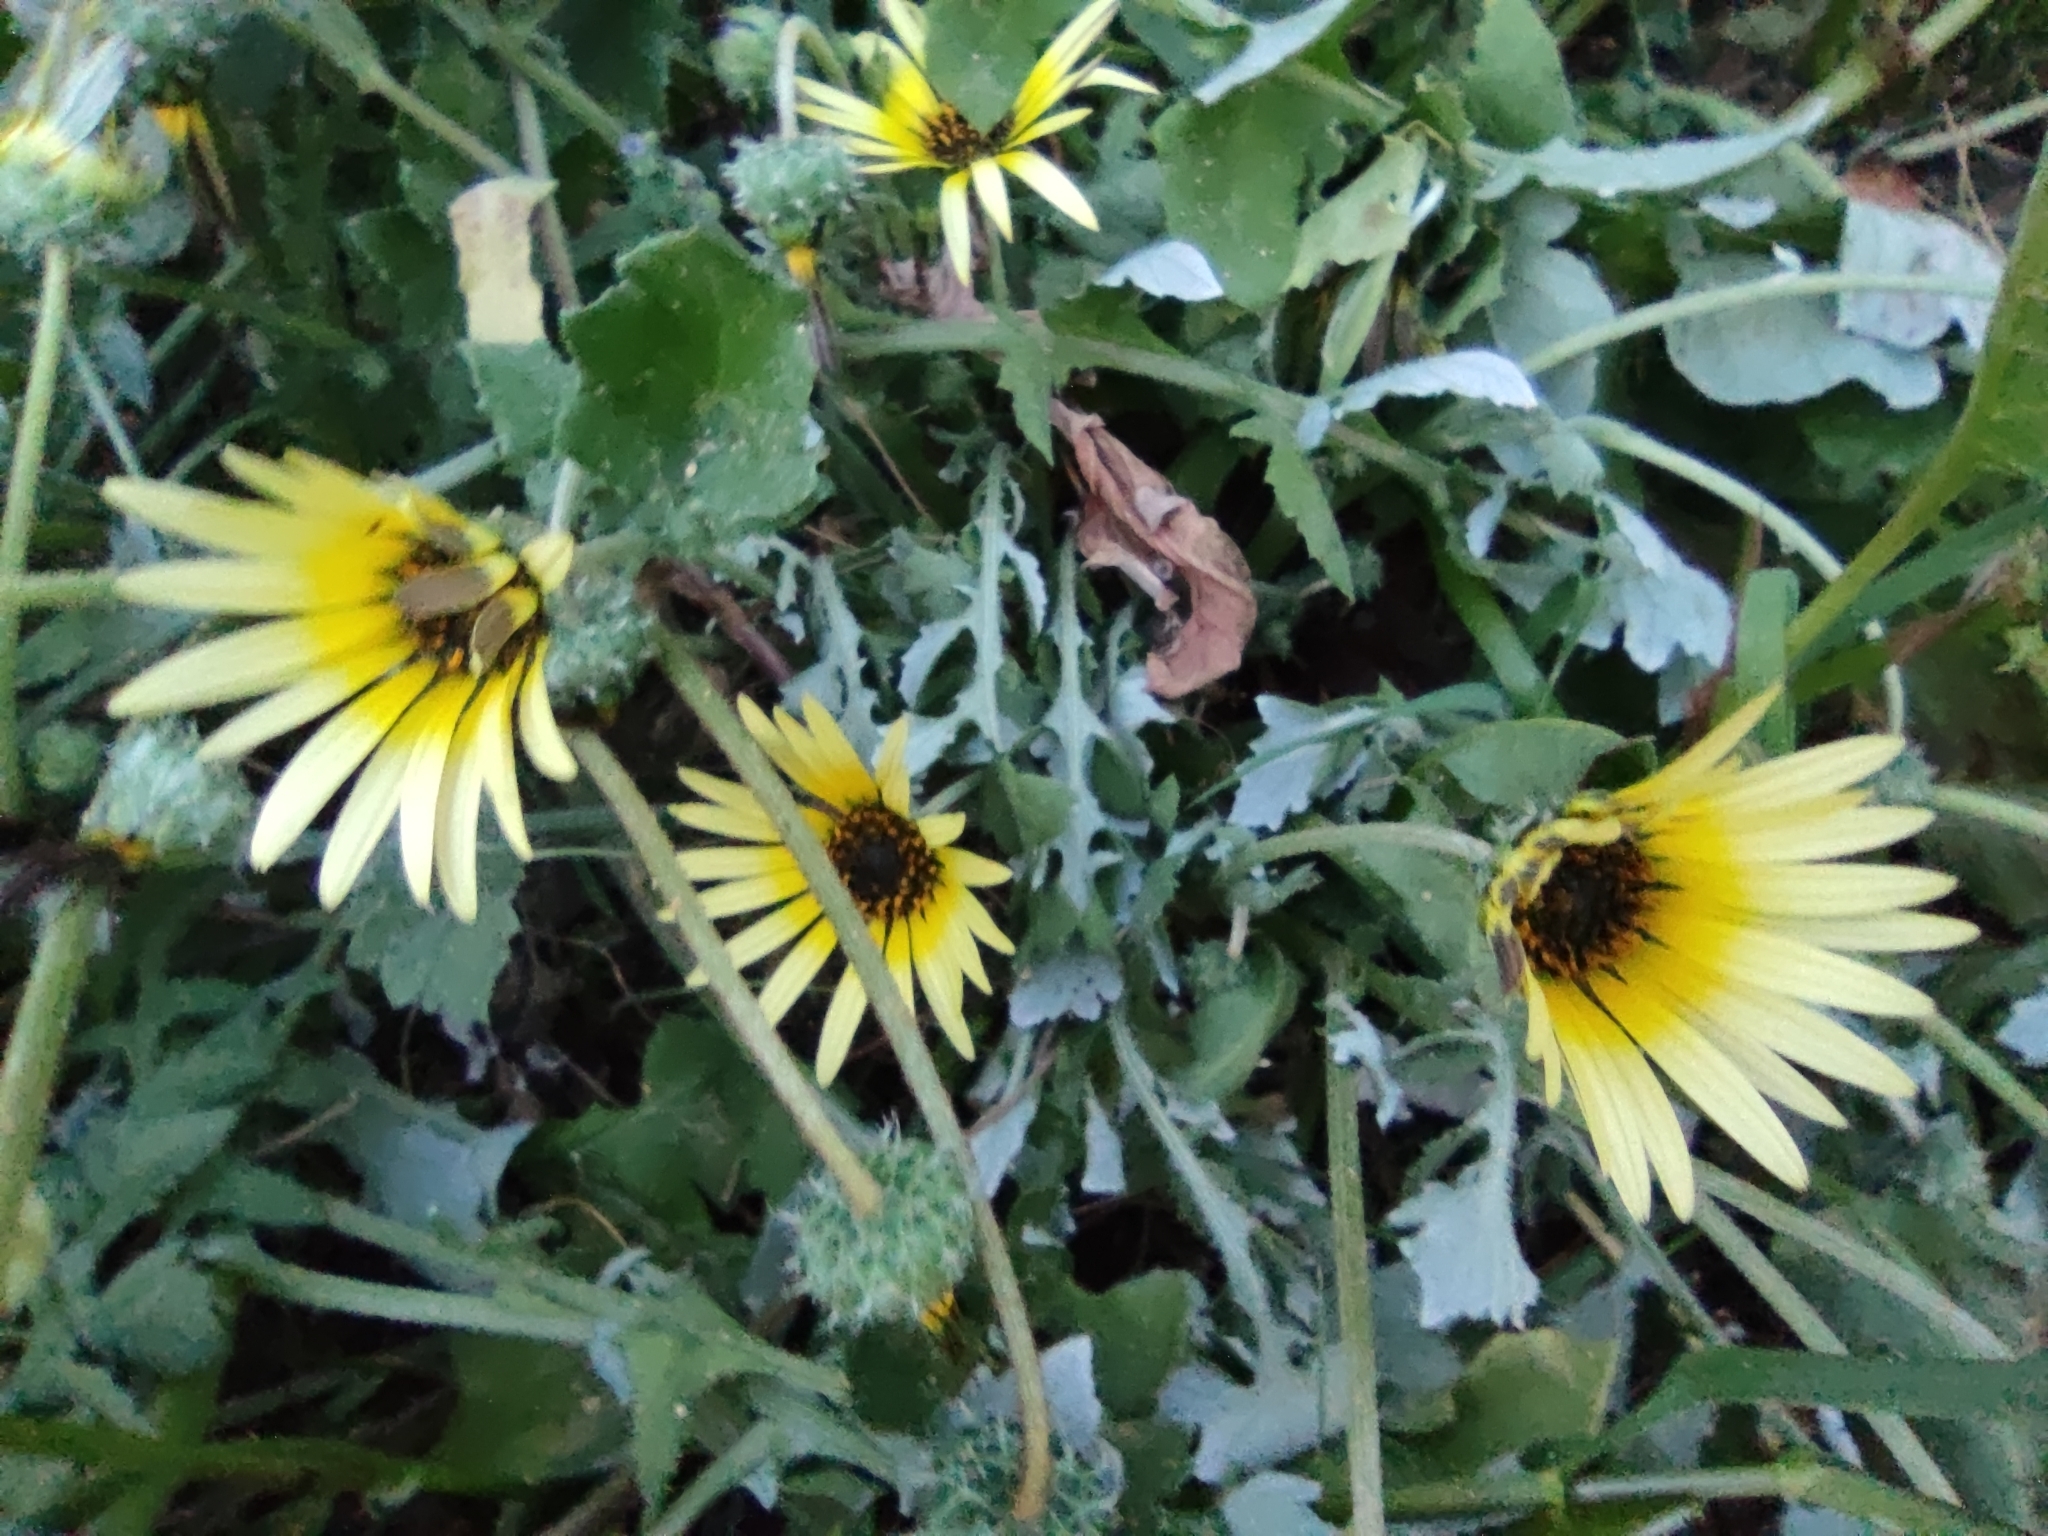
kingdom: Plantae
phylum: Tracheophyta
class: Magnoliopsida
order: Asterales
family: Asteraceae
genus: Arctotheca
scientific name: Arctotheca calendula
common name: Capeweed
